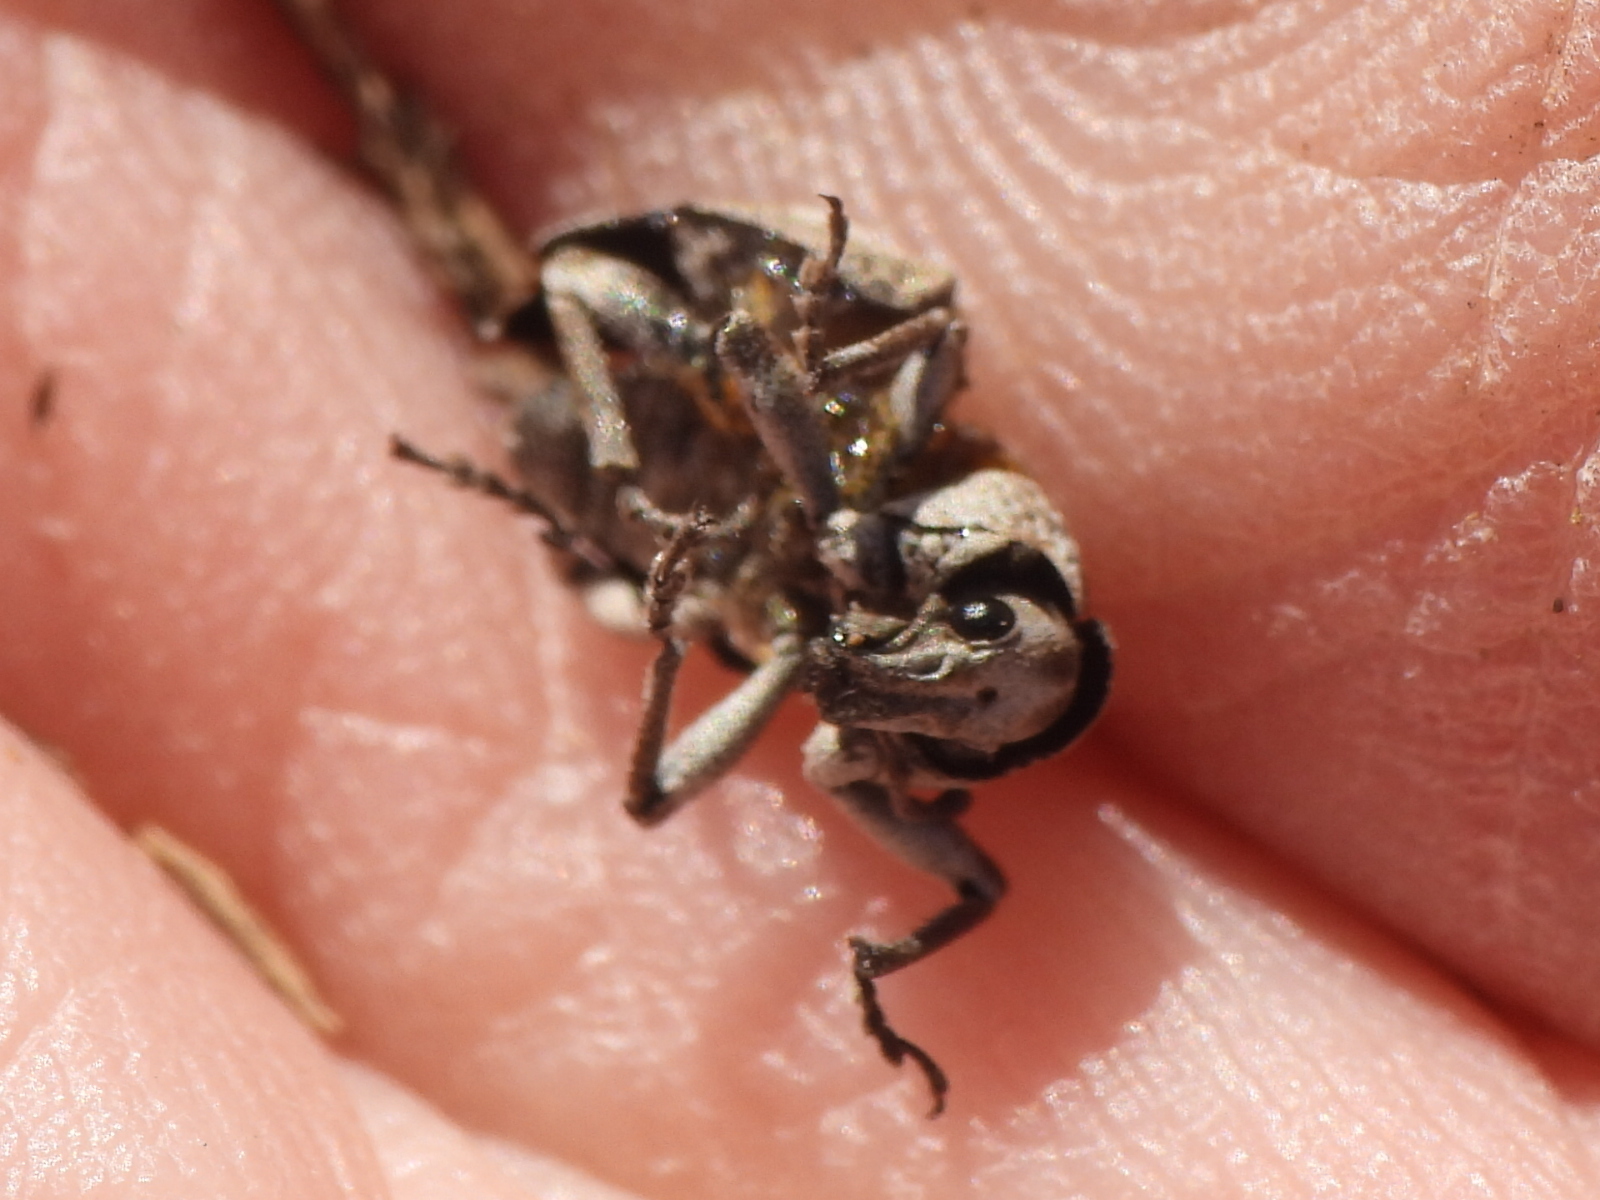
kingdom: Animalia
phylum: Arthropoda
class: Insecta
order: Coleoptera
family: Curculionidae
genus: Graphorhinus
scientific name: Graphorhinus vadosus
